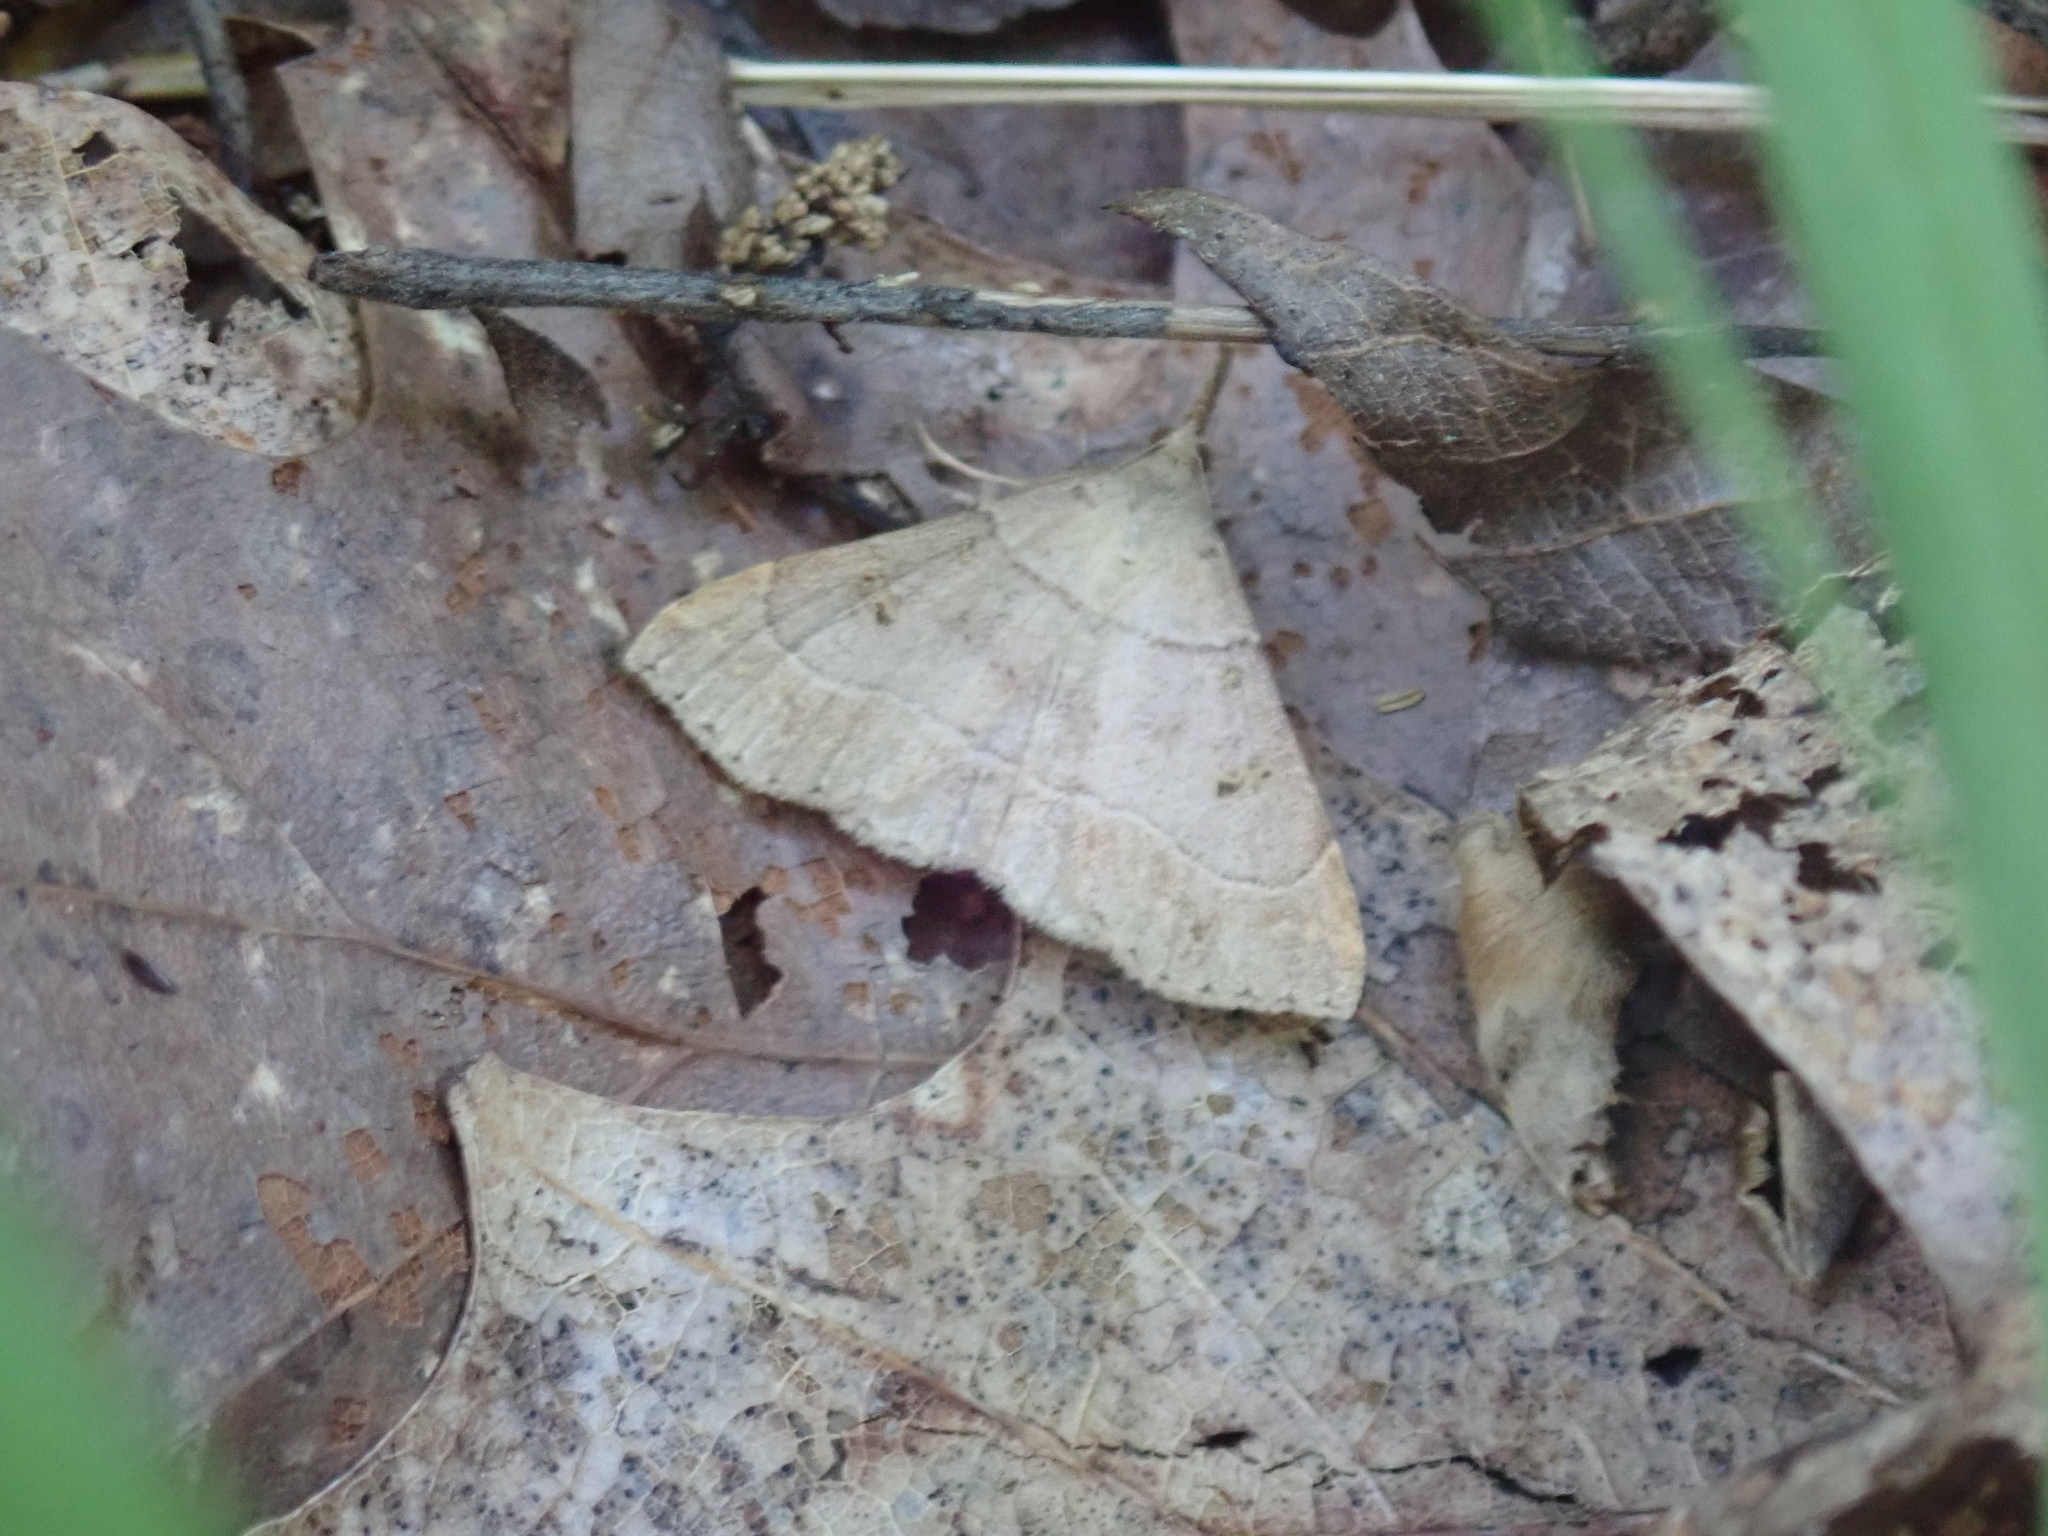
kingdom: Animalia
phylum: Arthropoda
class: Insecta
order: Lepidoptera
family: Erebidae
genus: Renia
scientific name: Renia flavipunctalis
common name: Yellow-spotted renia moth
